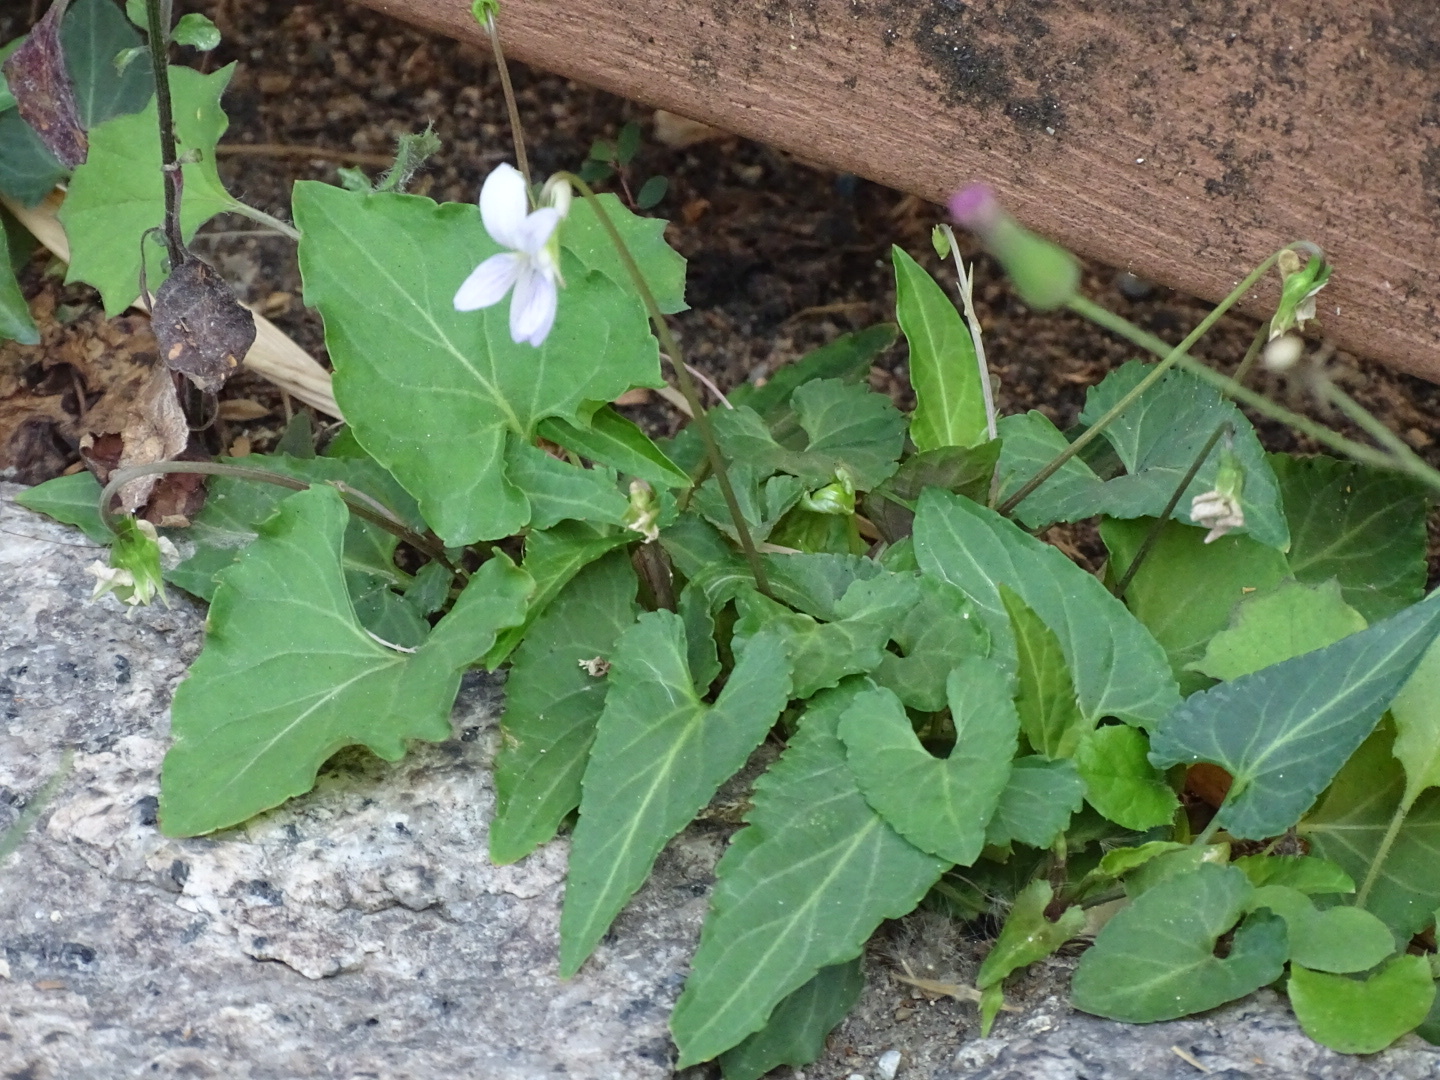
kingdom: Plantae
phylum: Tracheophyta
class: Magnoliopsida
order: Malpighiales
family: Violaceae
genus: Viola
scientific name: Viola inconspicua
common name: Long sepal violet
